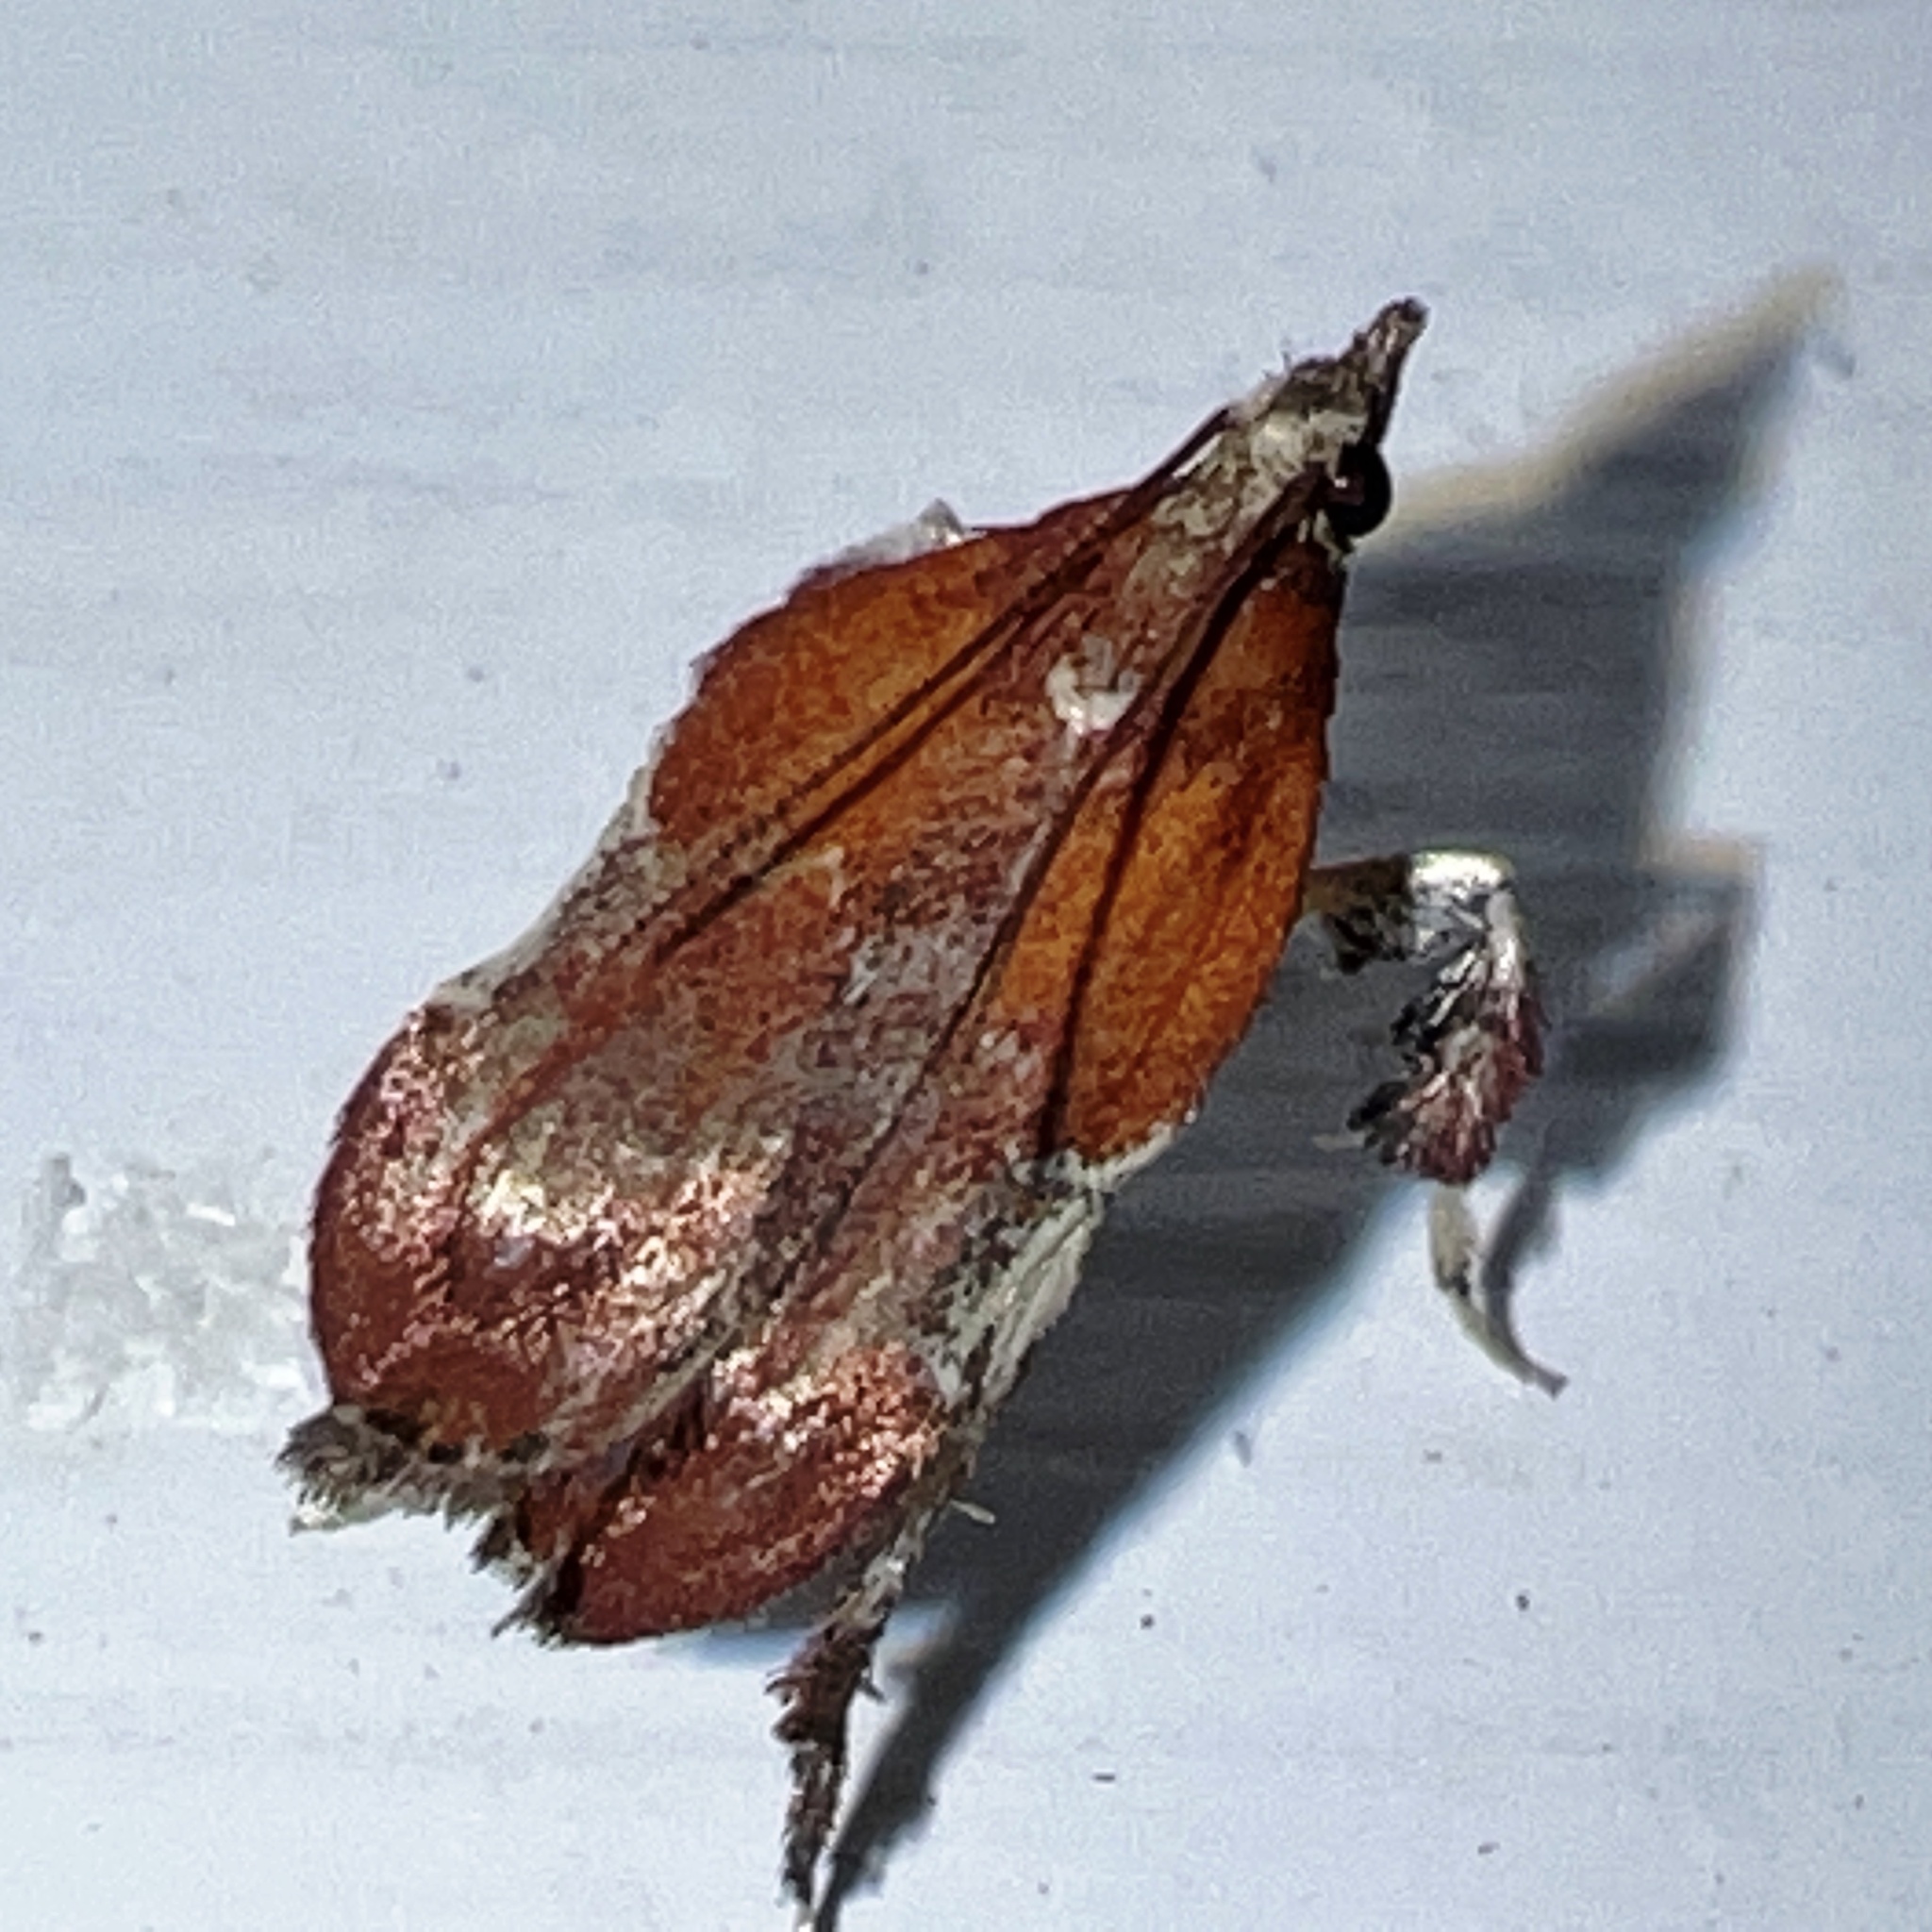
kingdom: Animalia
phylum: Arthropoda
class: Insecta
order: Lepidoptera
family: Pyralidae
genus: Galasa
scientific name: Galasa nigrinodis
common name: Boxwood leaftier moth
